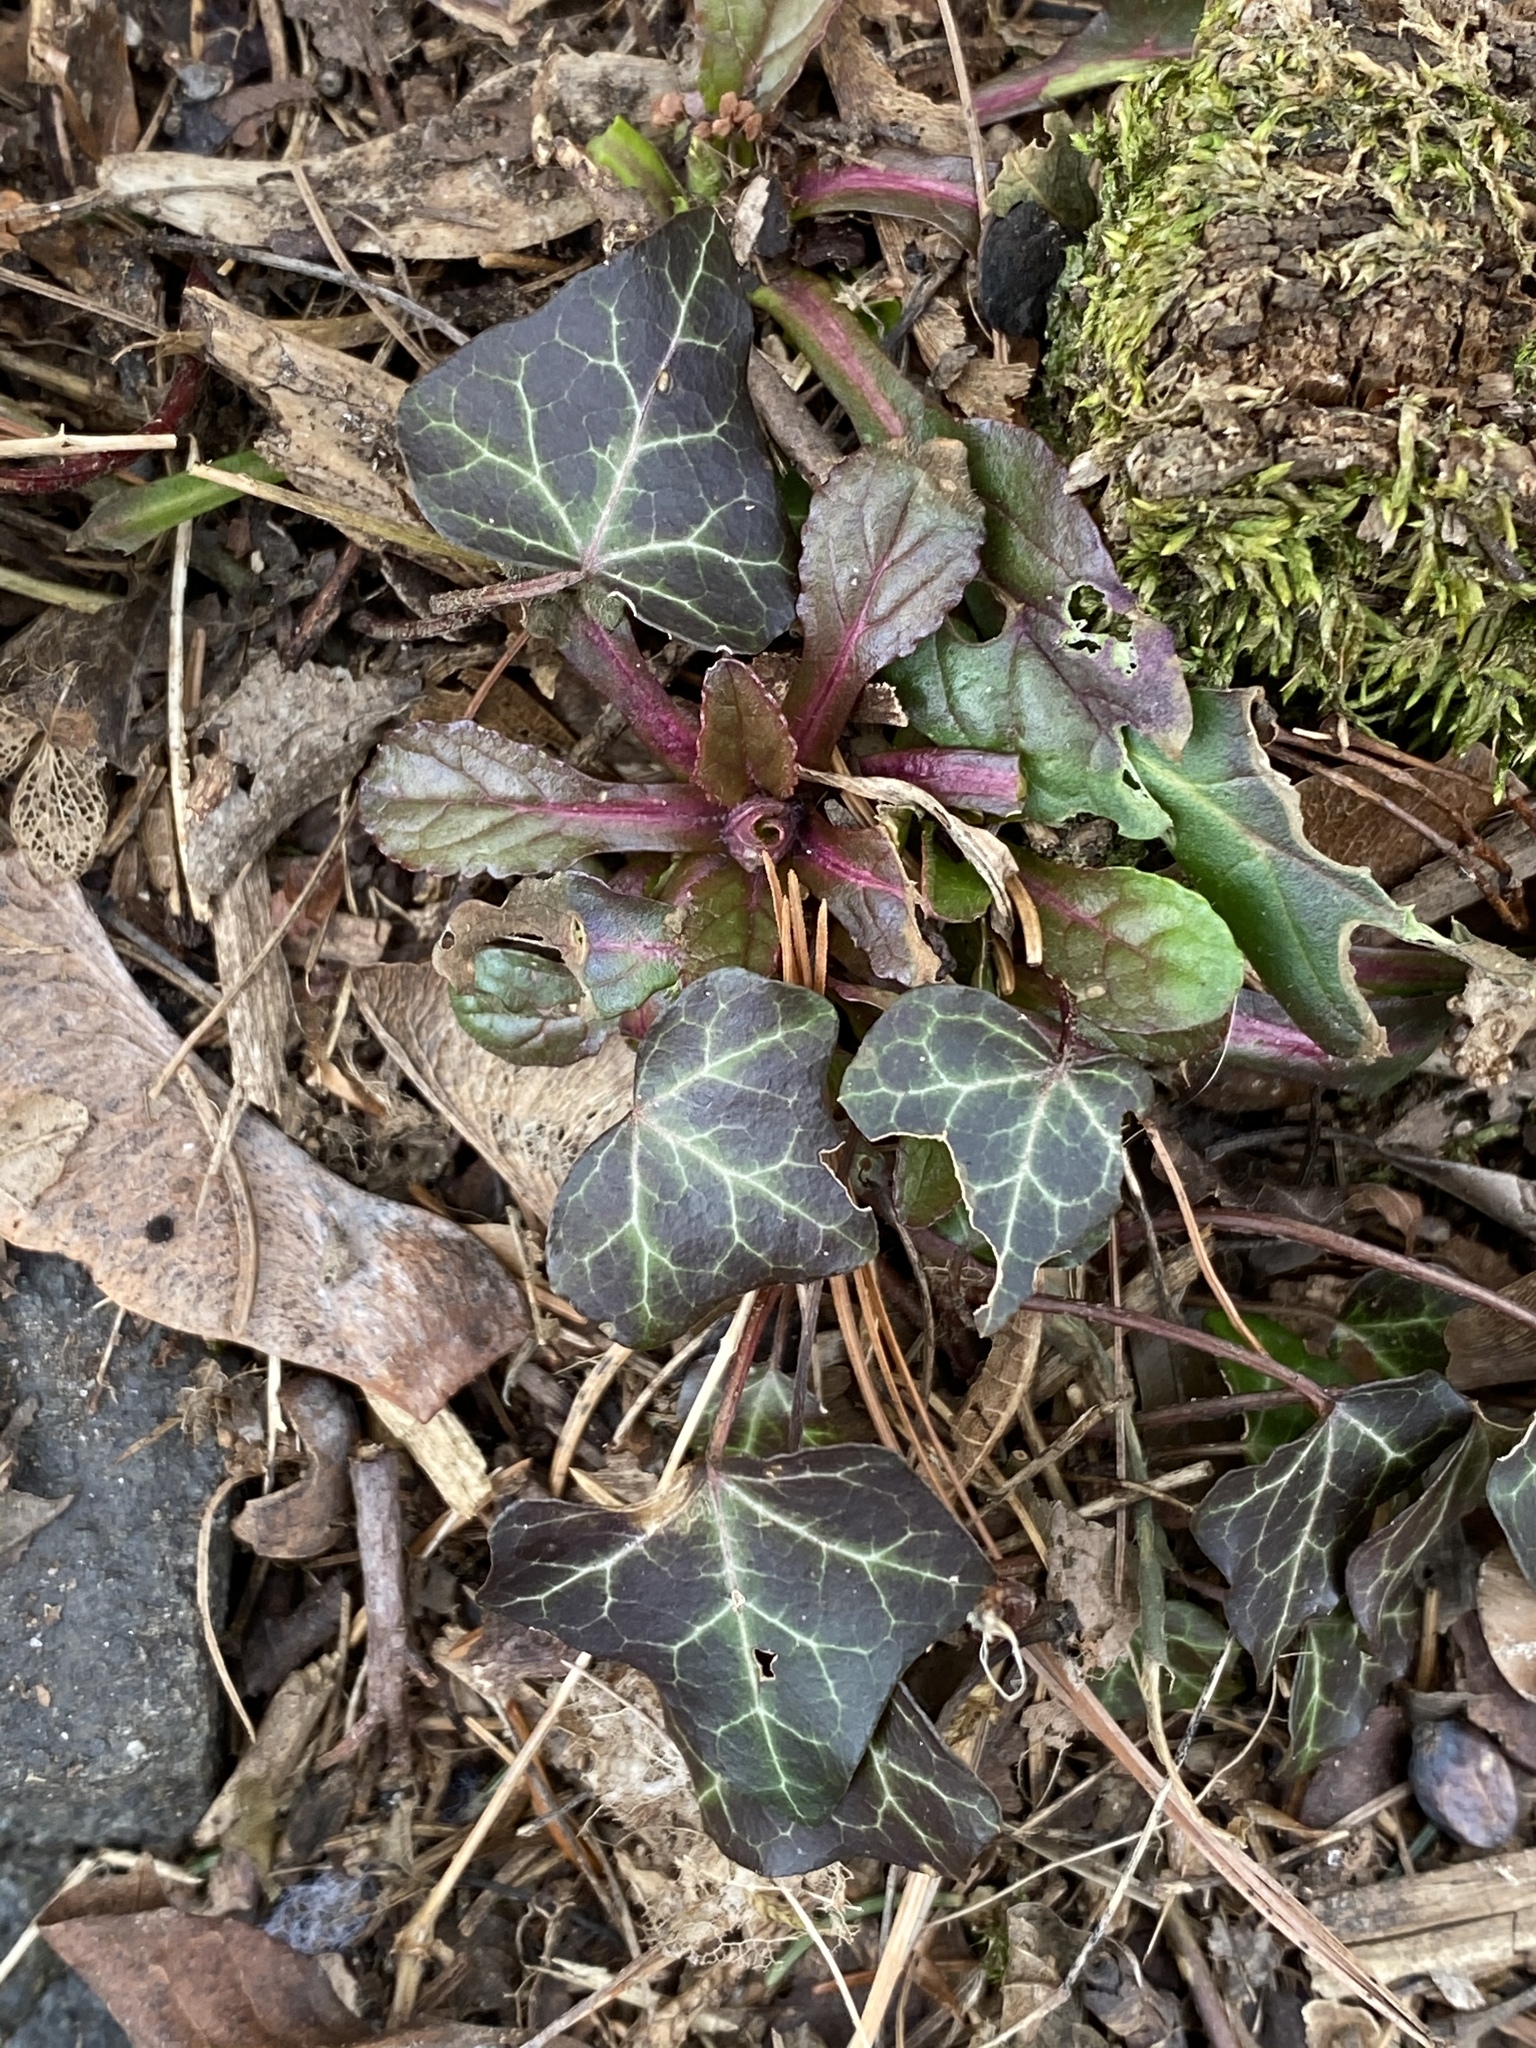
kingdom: Plantae
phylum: Tracheophyta
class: Magnoliopsida
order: Apiales
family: Araliaceae
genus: Hedera
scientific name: Hedera
